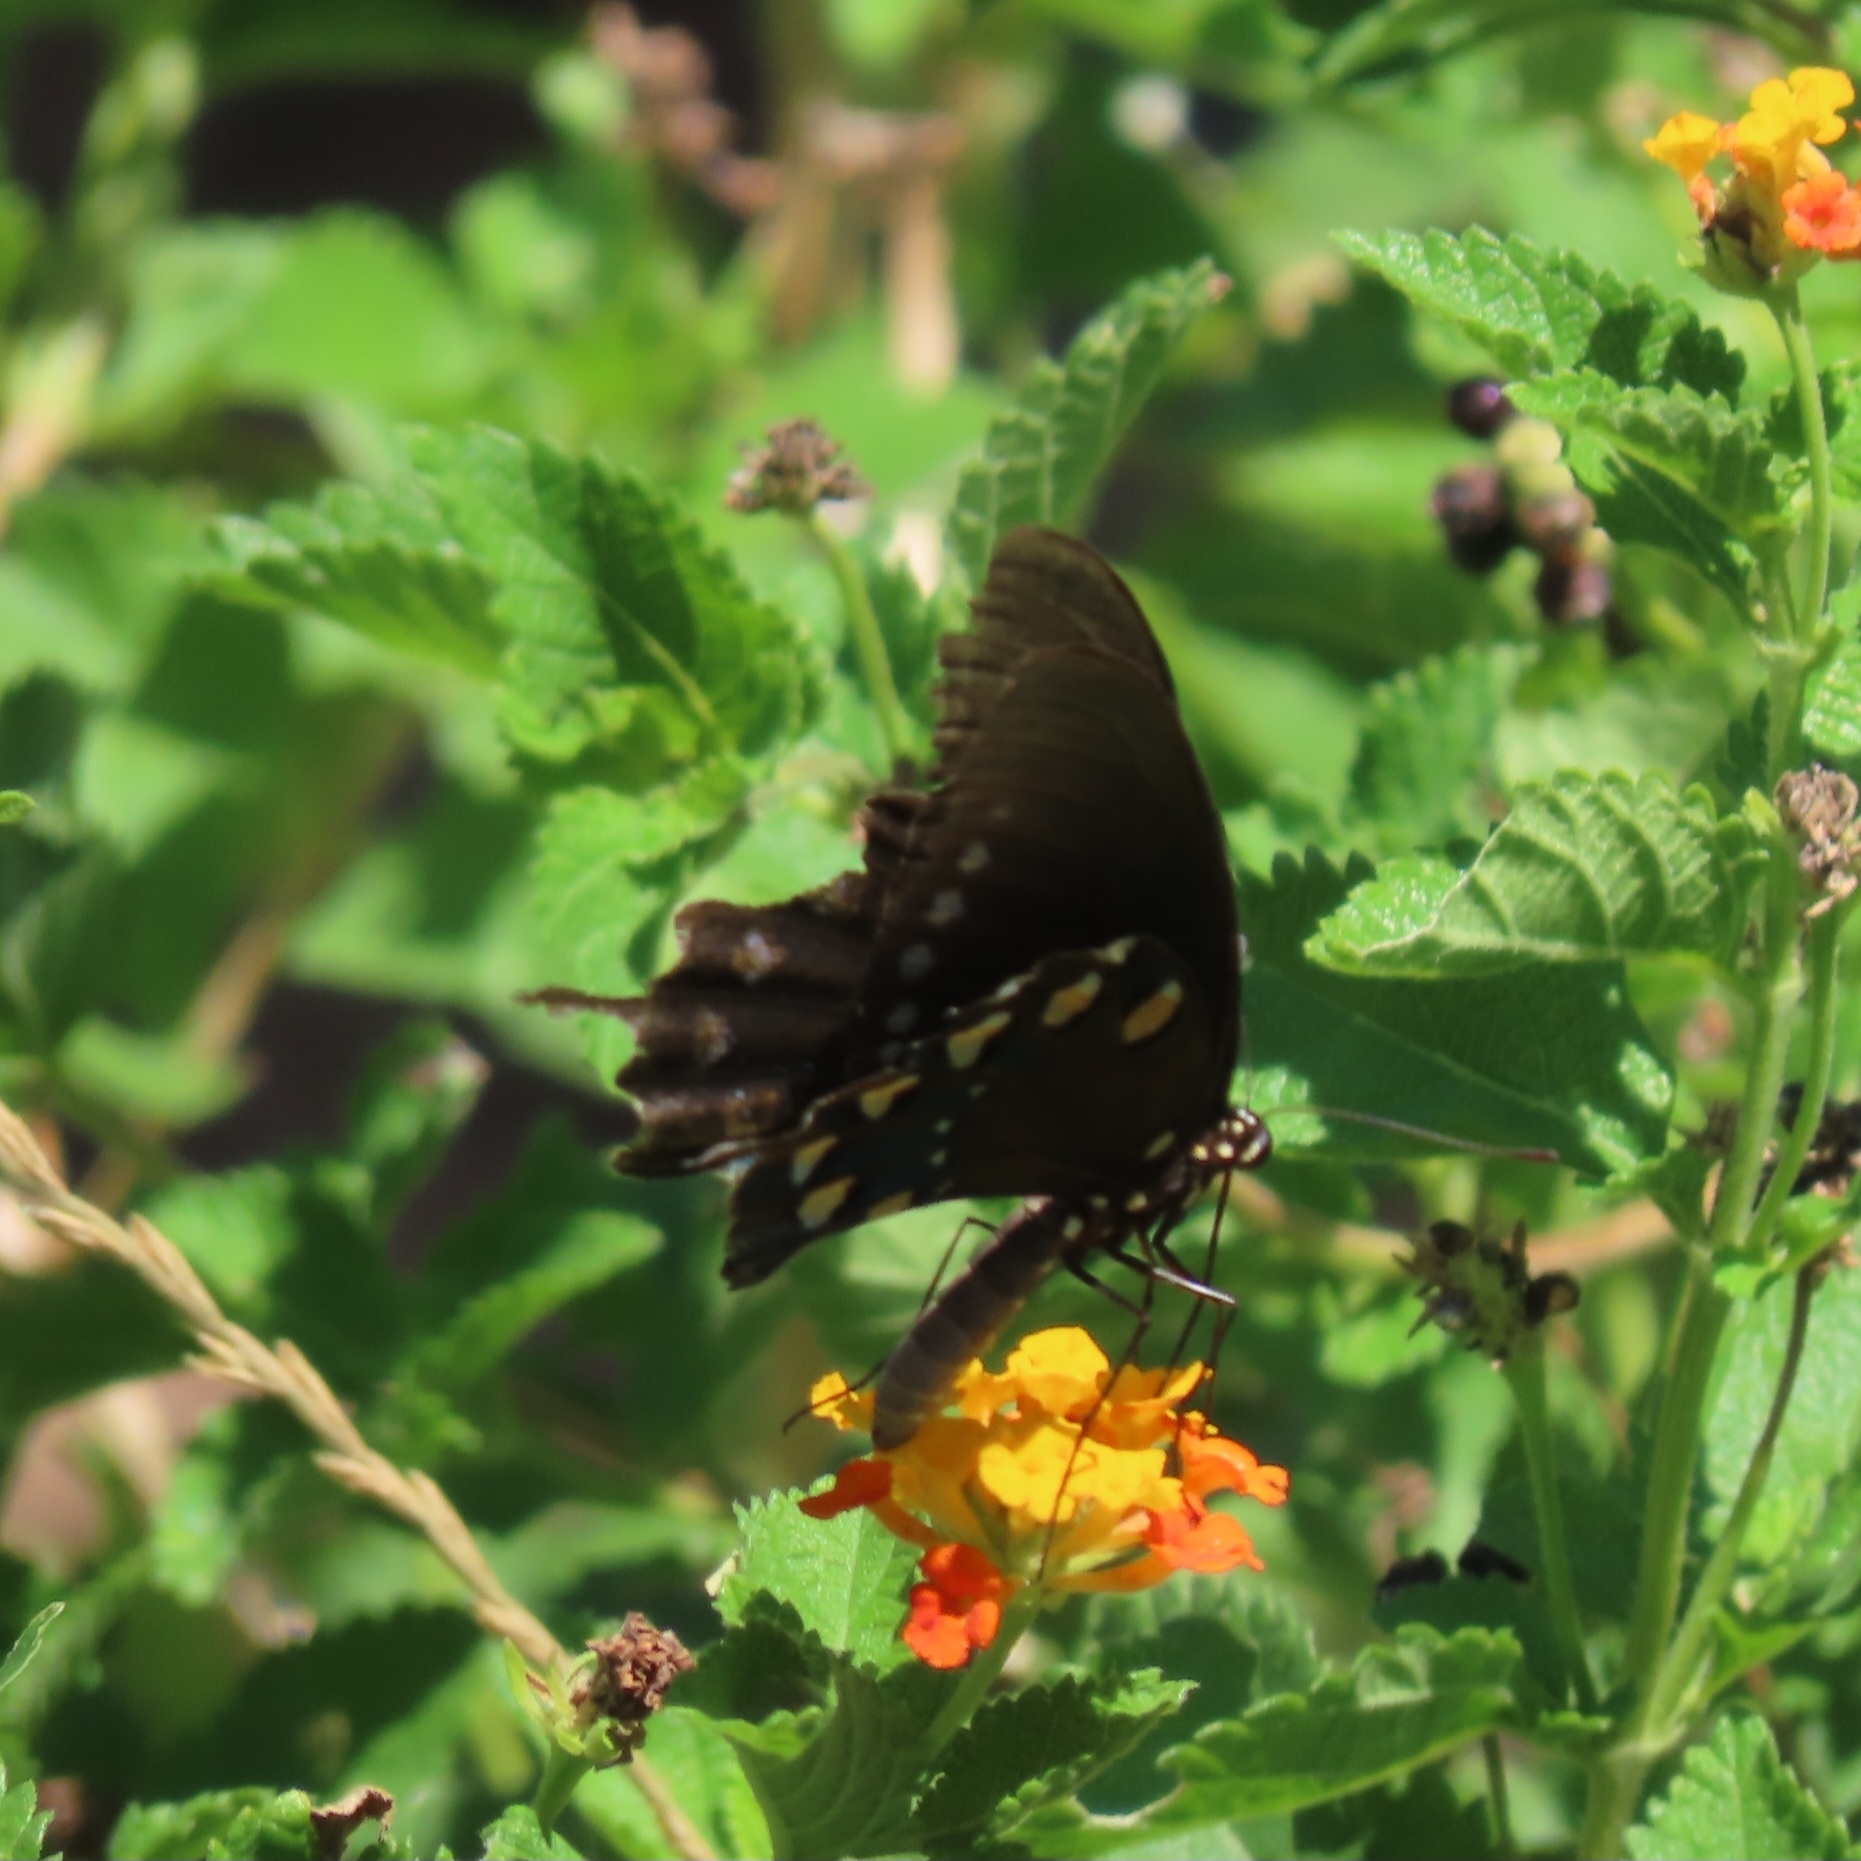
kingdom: Animalia
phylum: Arthropoda
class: Insecta
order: Lepidoptera
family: Papilionidae
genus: Battus
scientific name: Battus philenor
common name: Pipevine swallowtail
